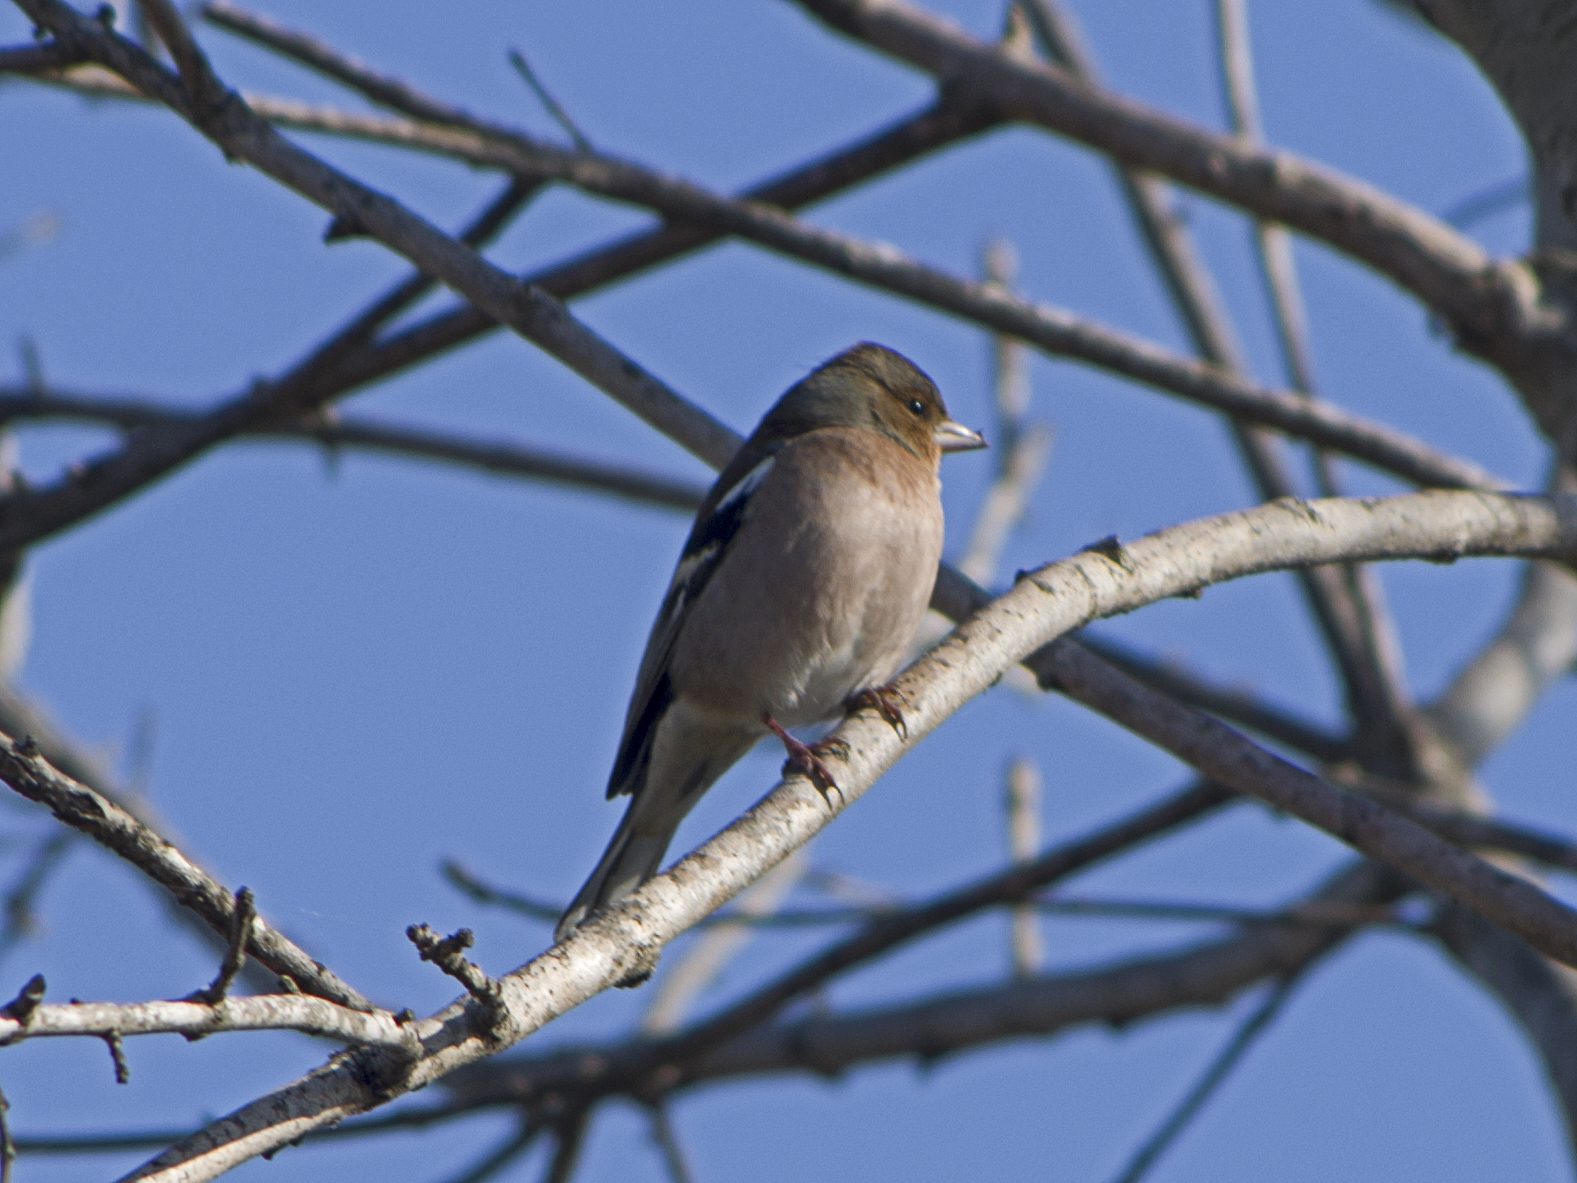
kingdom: Animalia
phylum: Chordata
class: Aves
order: Passeriformes
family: Fringillidae
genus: Fringilla
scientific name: Fringilla coelebs
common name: Common chaffinch
